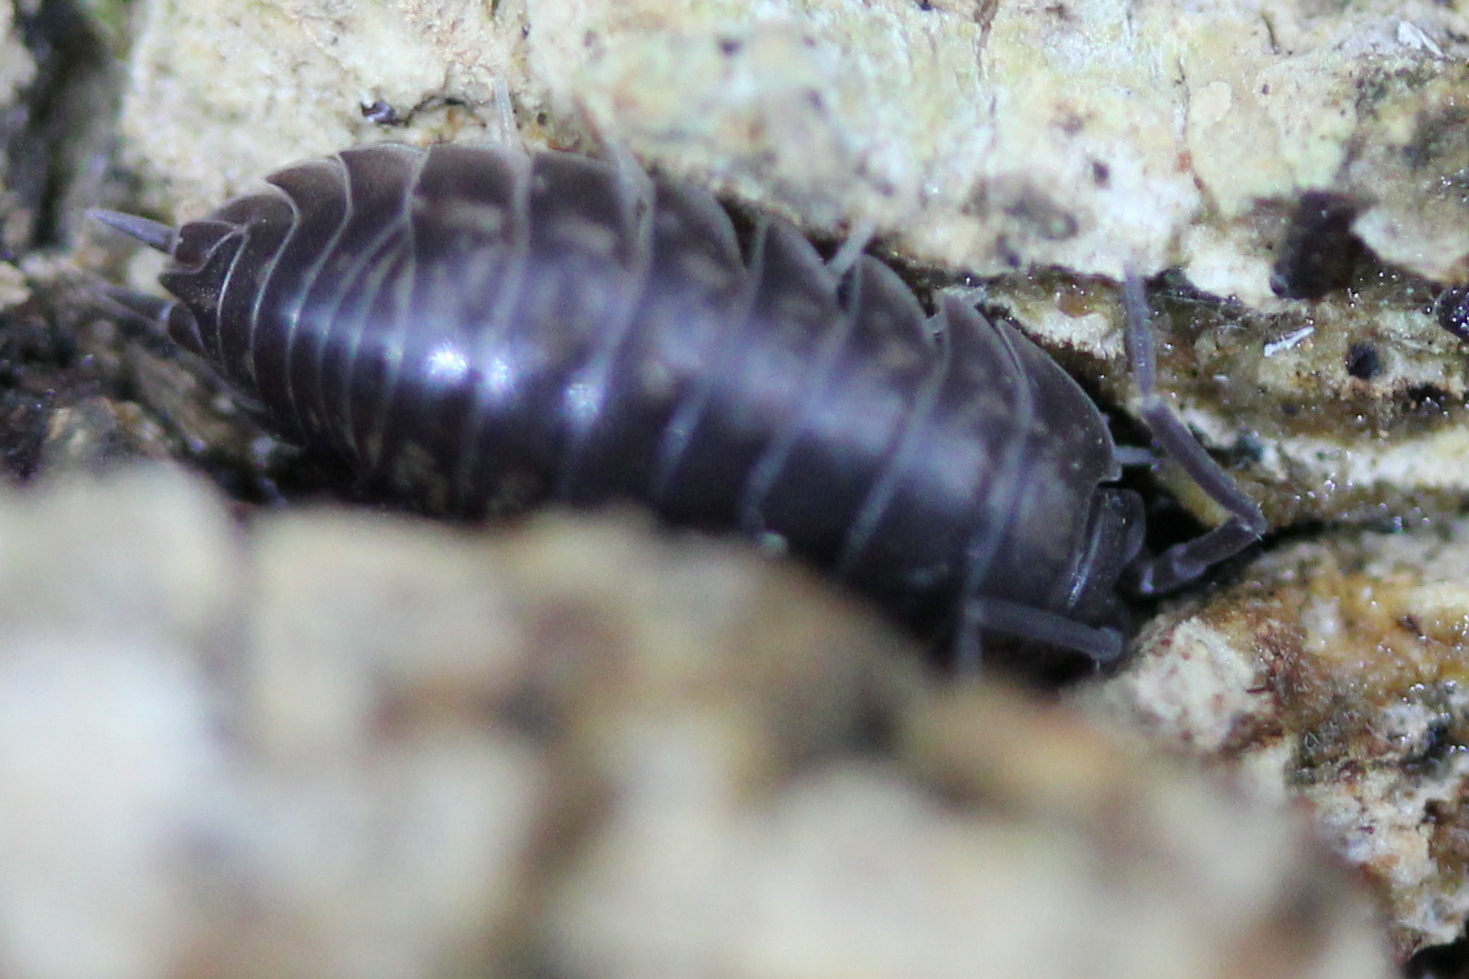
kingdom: Animalia
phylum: Arthropoda
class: Malacostraca
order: Isopoda
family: Cylisticidae
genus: Cylisticus
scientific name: Cylisticus convexus
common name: Curly woodlouse
